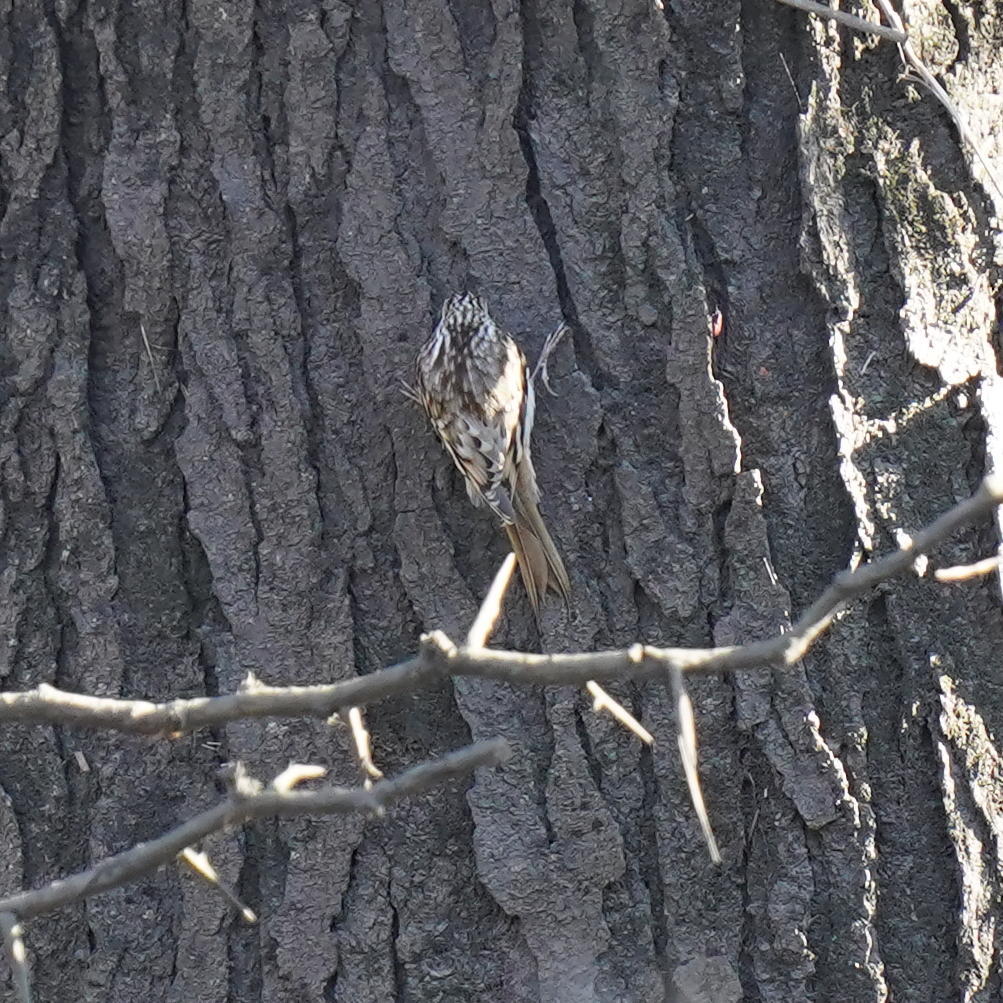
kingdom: Animalia
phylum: Chordata
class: Aves
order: Passeriformes
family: Certhiidae
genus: Certhia
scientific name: Certhia americana
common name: Brown creeper
